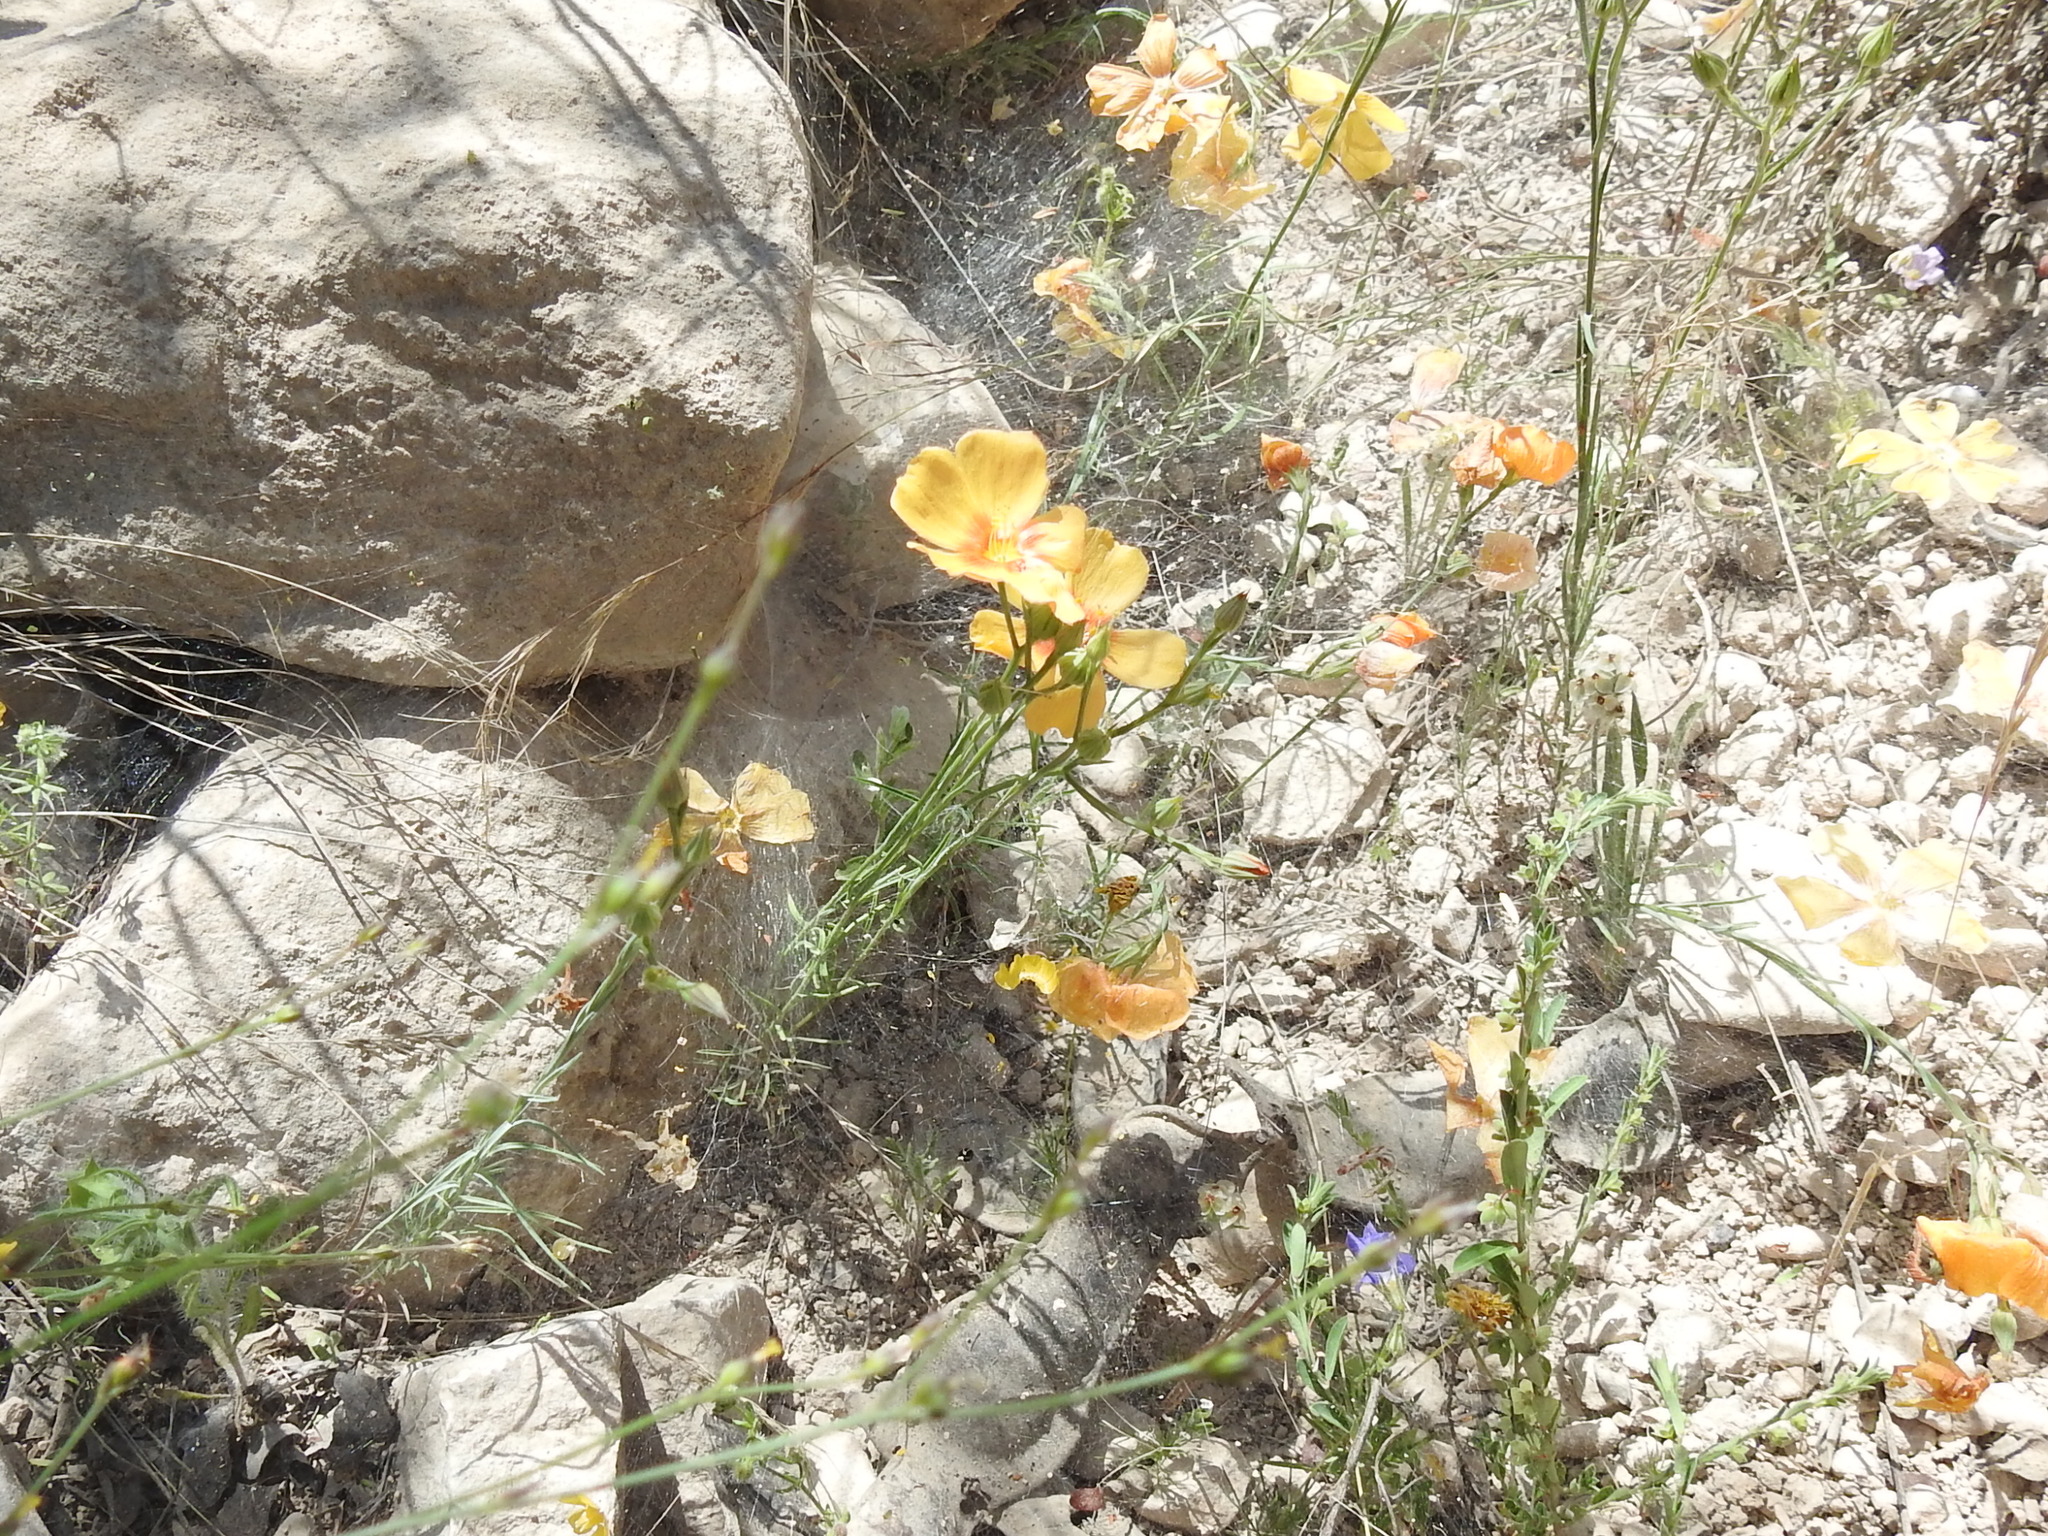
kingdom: Plantae
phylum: Tracheophyta
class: Magnoliopsida
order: Malpighiales
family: Linaceae
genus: Linum
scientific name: Linum berlandieri
